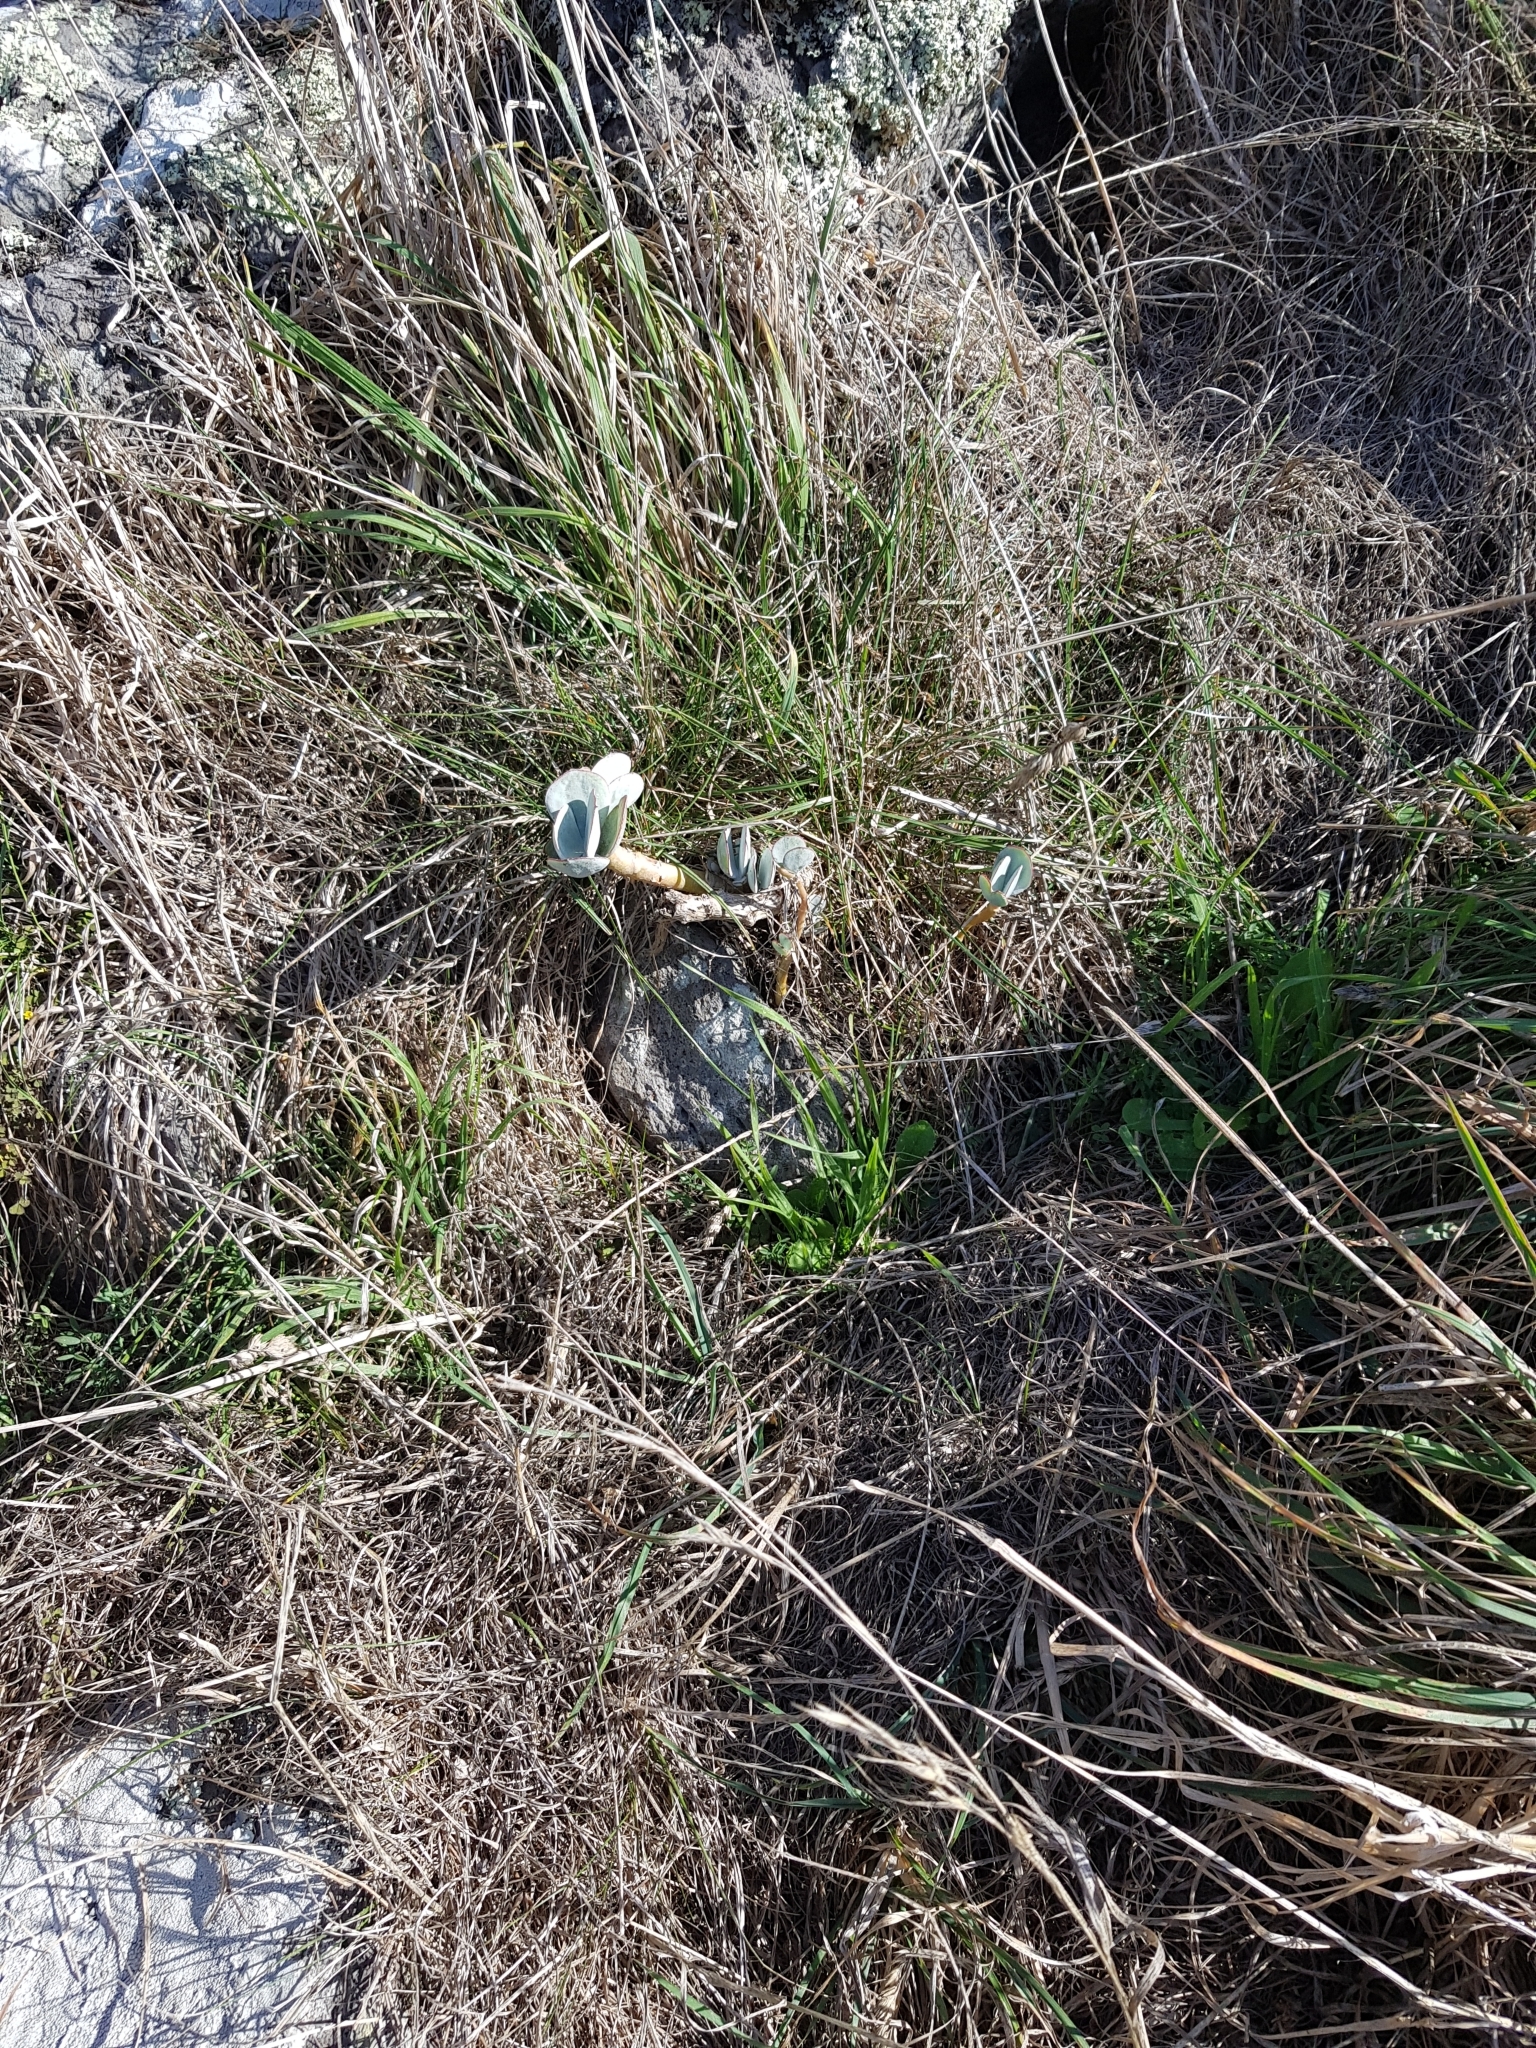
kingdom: Plantae
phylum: Tracheophyta
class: Magnoliopsida
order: Saxifragales
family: Crassulaceae
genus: Cotyledon
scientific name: Cotyledon orbiculata
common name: Pig's ear
